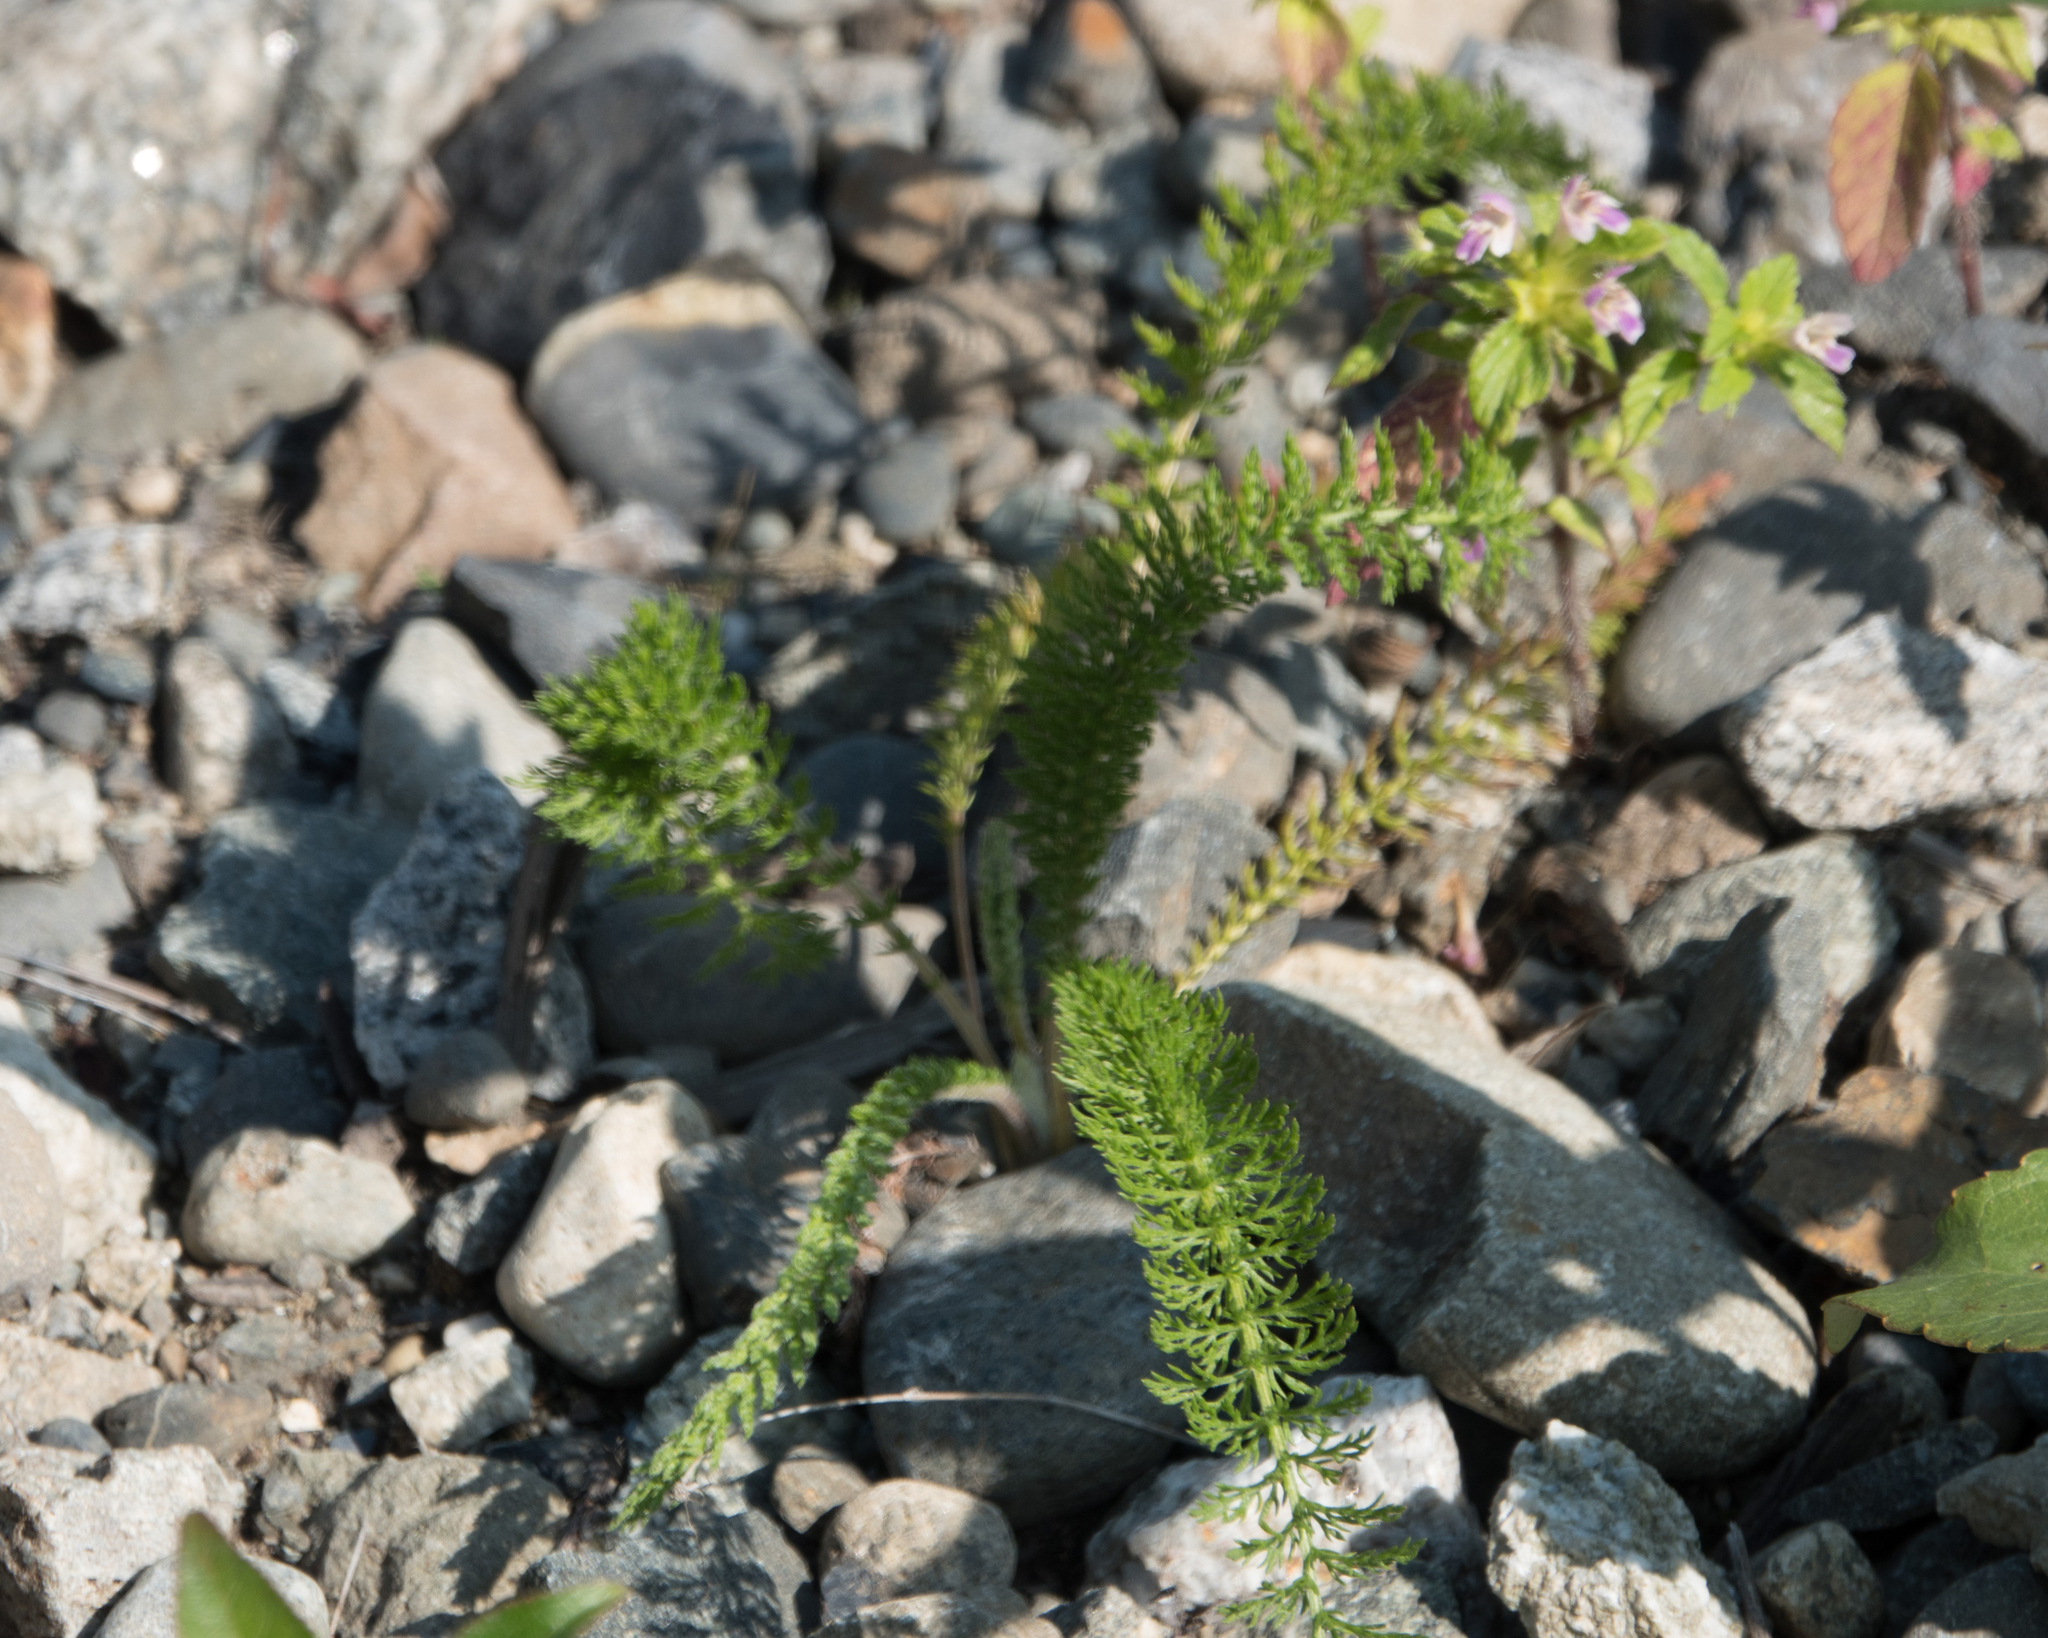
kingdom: Plantae
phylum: Tracheophyta
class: Magnoliopsida
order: Asterales
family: Asteraceae
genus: Achillea
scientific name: Achillea millefolium
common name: Yarrow
